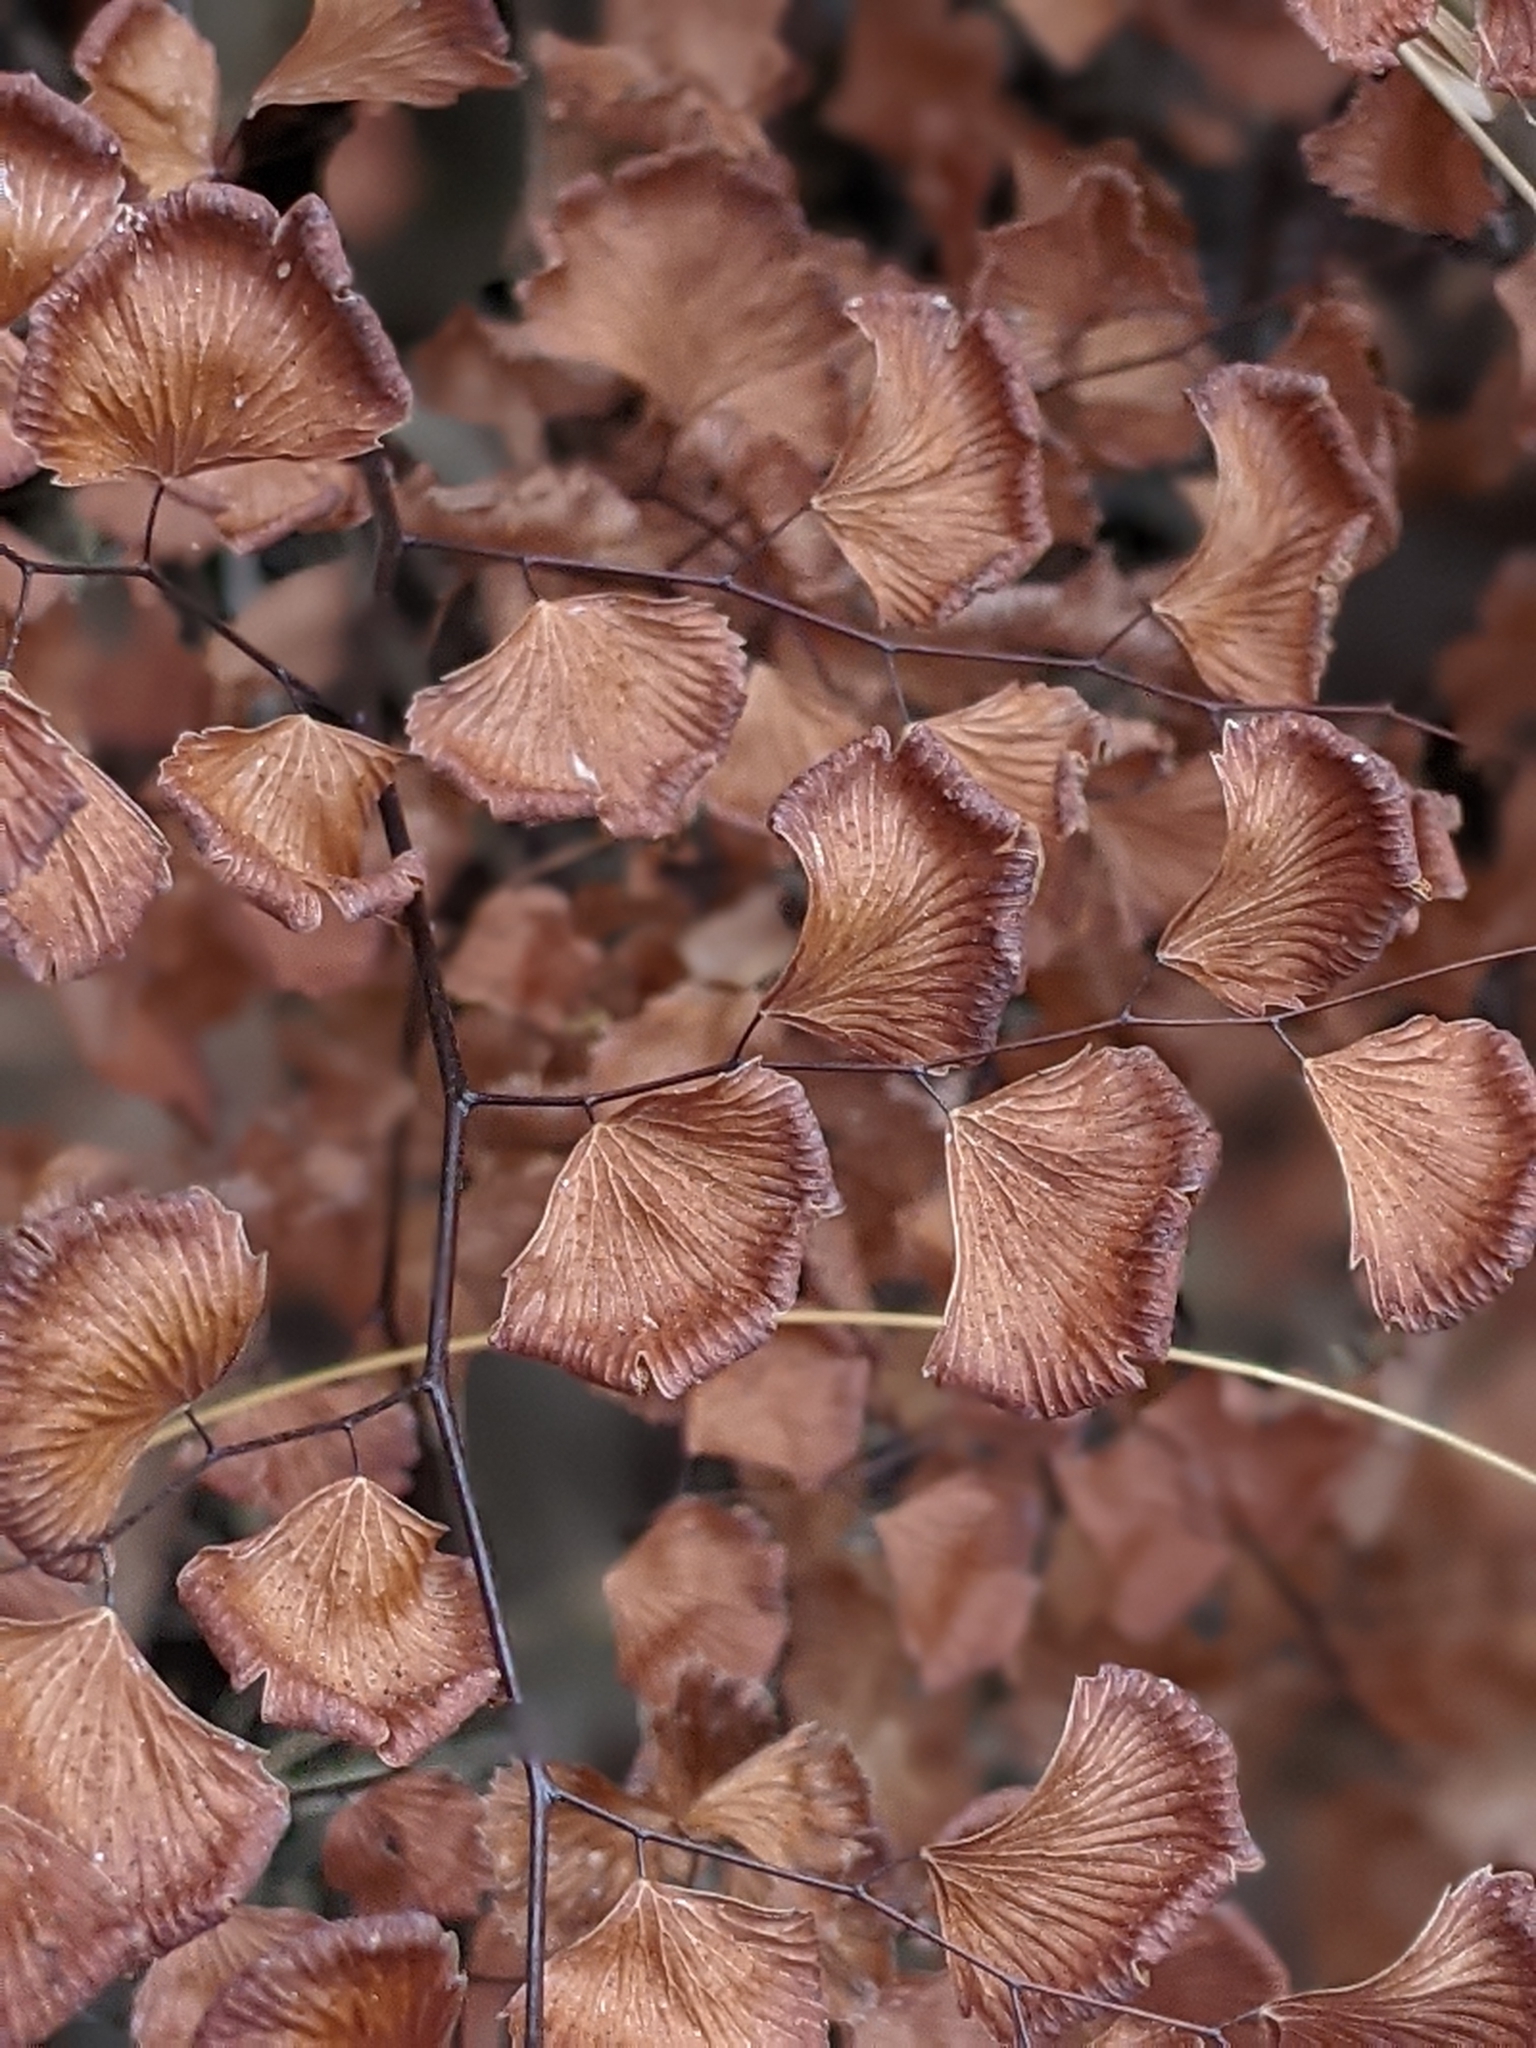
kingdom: Plantae
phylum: Tracheophyta
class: Polypodiopsida
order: Polypodiales
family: Pteridaceae
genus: Adiantum
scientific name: Adiantum jordanii
